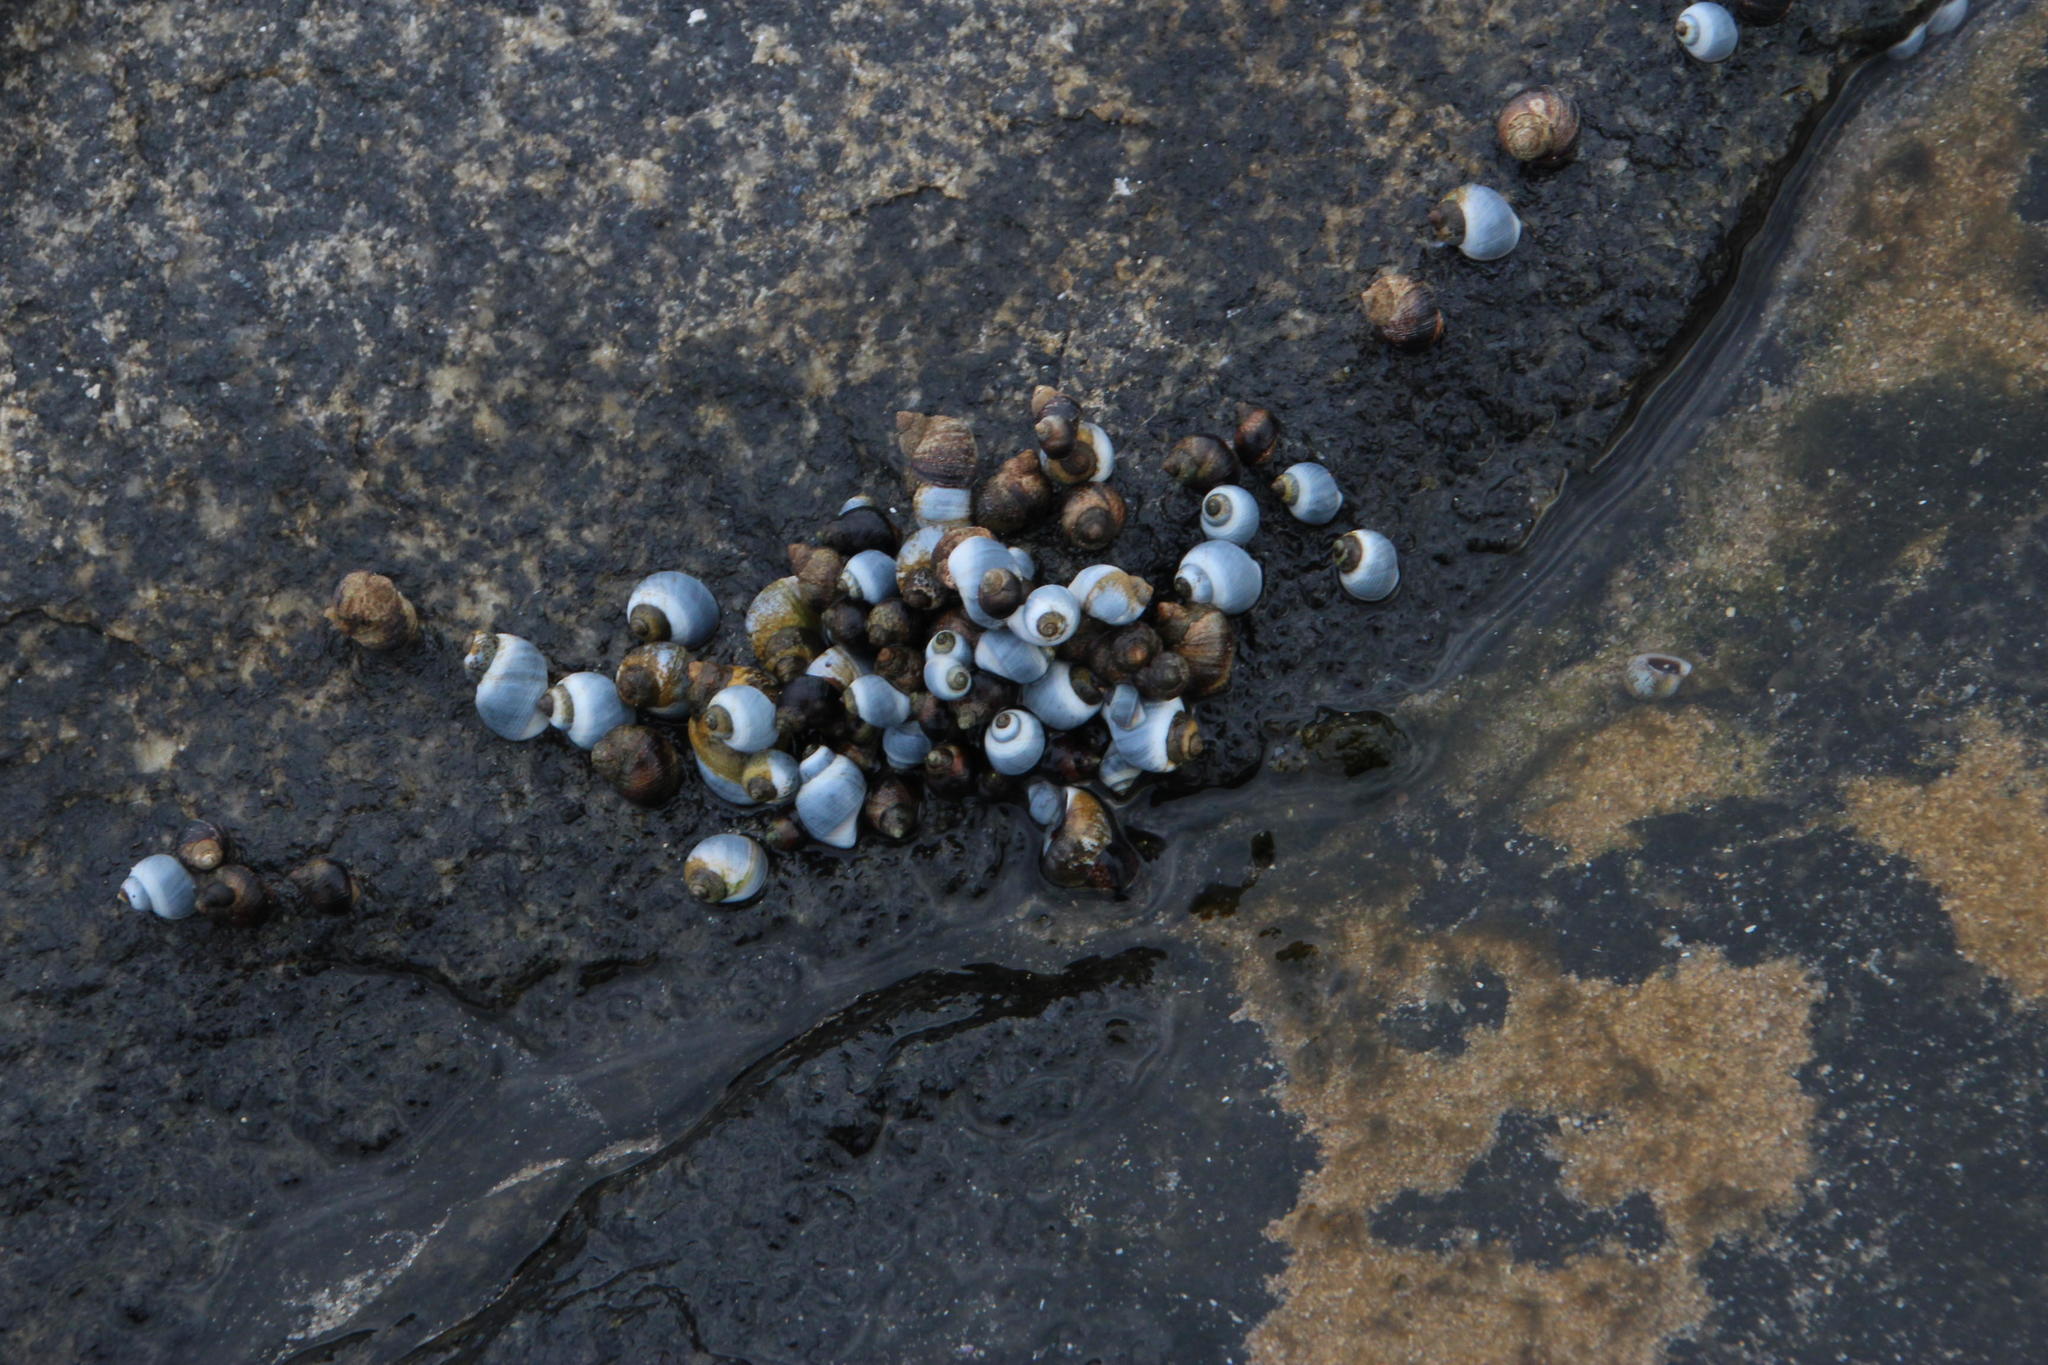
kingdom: Animalia
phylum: Mollusca
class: Gastropoda
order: Littorinimorpha
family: Littorinidae
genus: Afrolittorina
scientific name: Afrolittorina africana
